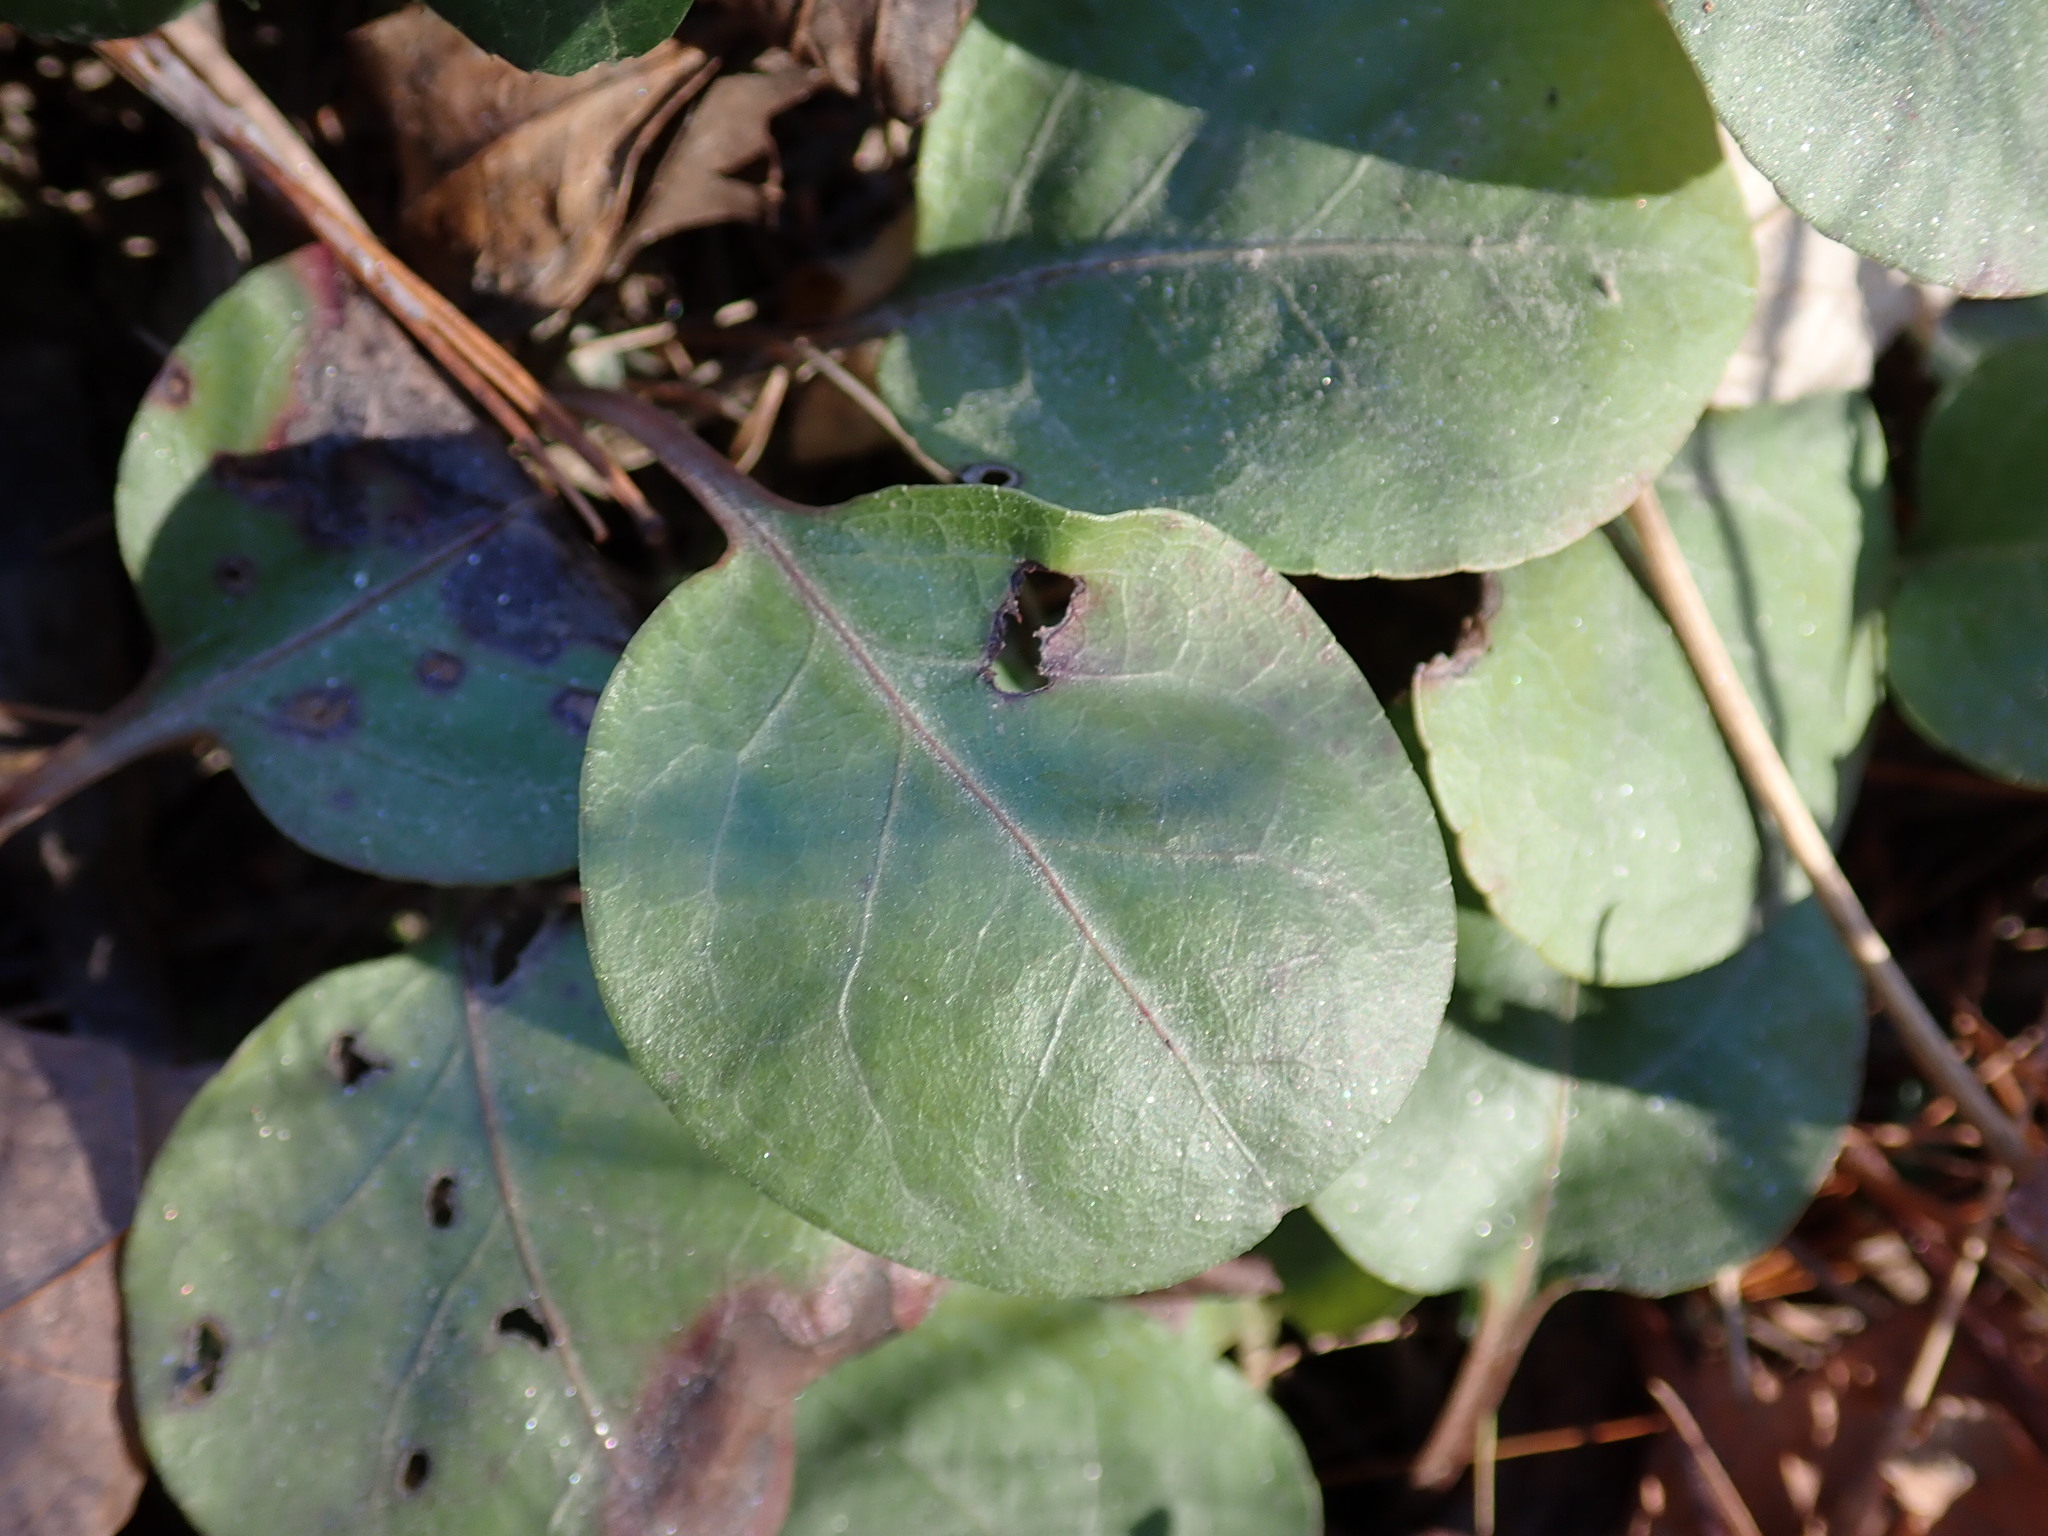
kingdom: Plantae
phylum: Tracheophyta
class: Magnoliopsida
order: Ericales
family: Ericaceae
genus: Pyrola
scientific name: Pyrola americana
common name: American wintergreen
